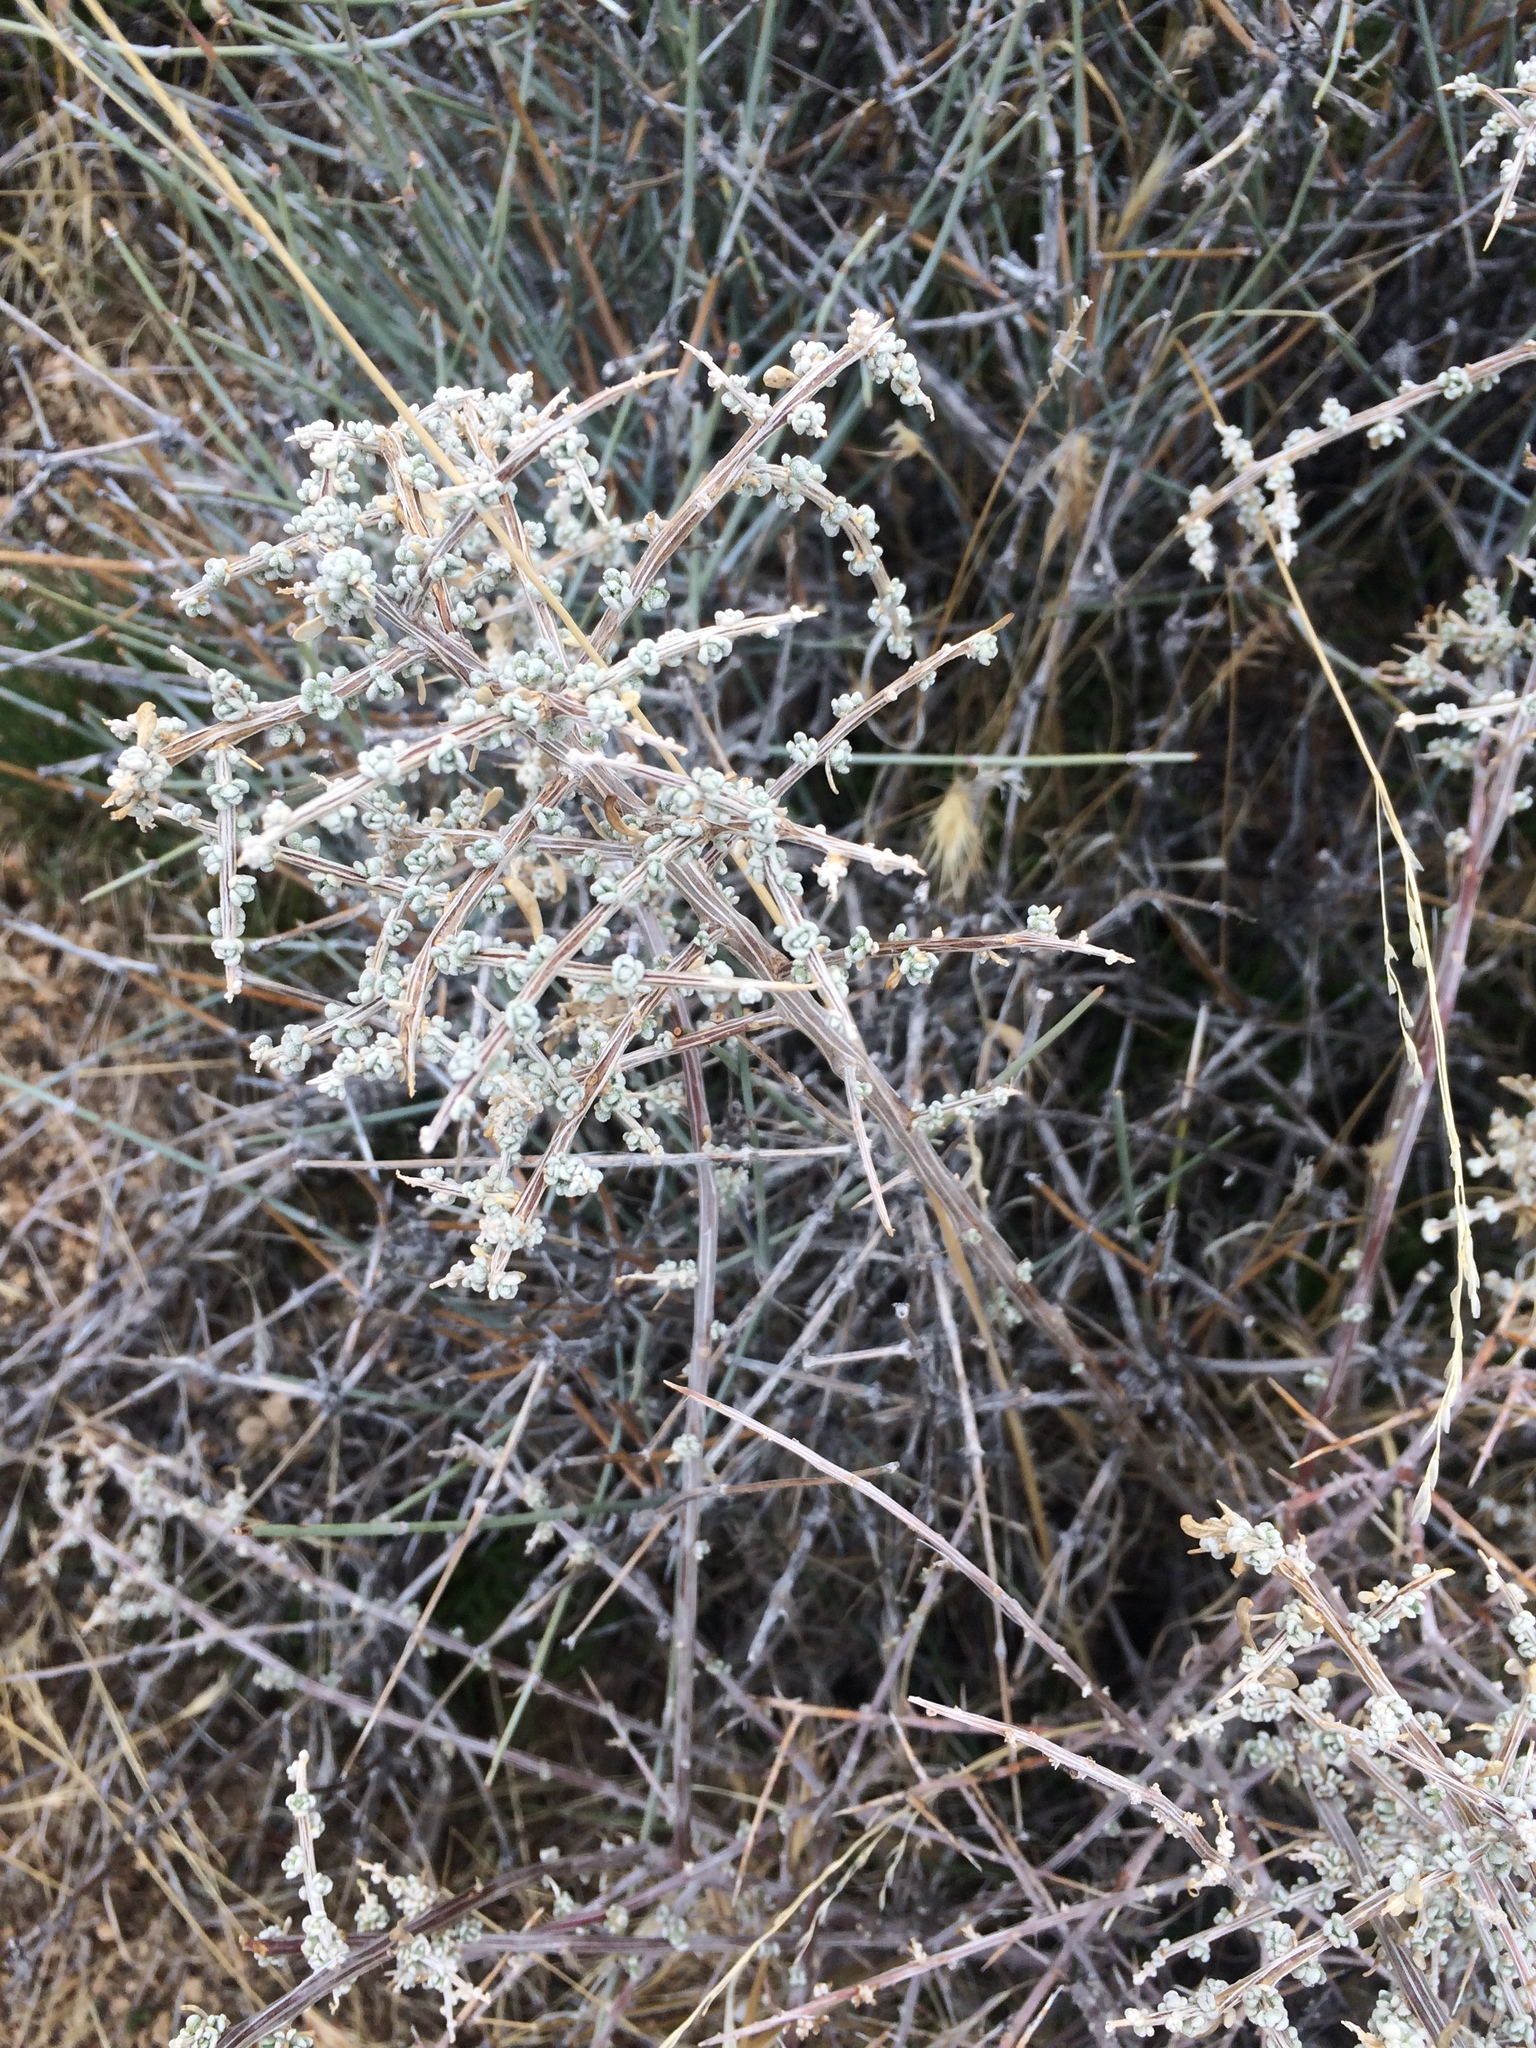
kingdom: Plantae
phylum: Tracheophyta
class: Magnoliopsida
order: Caryophyllales
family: Amaranthaceae
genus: Grayia
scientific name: Grayia spinosa
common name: Spiny hopsage
